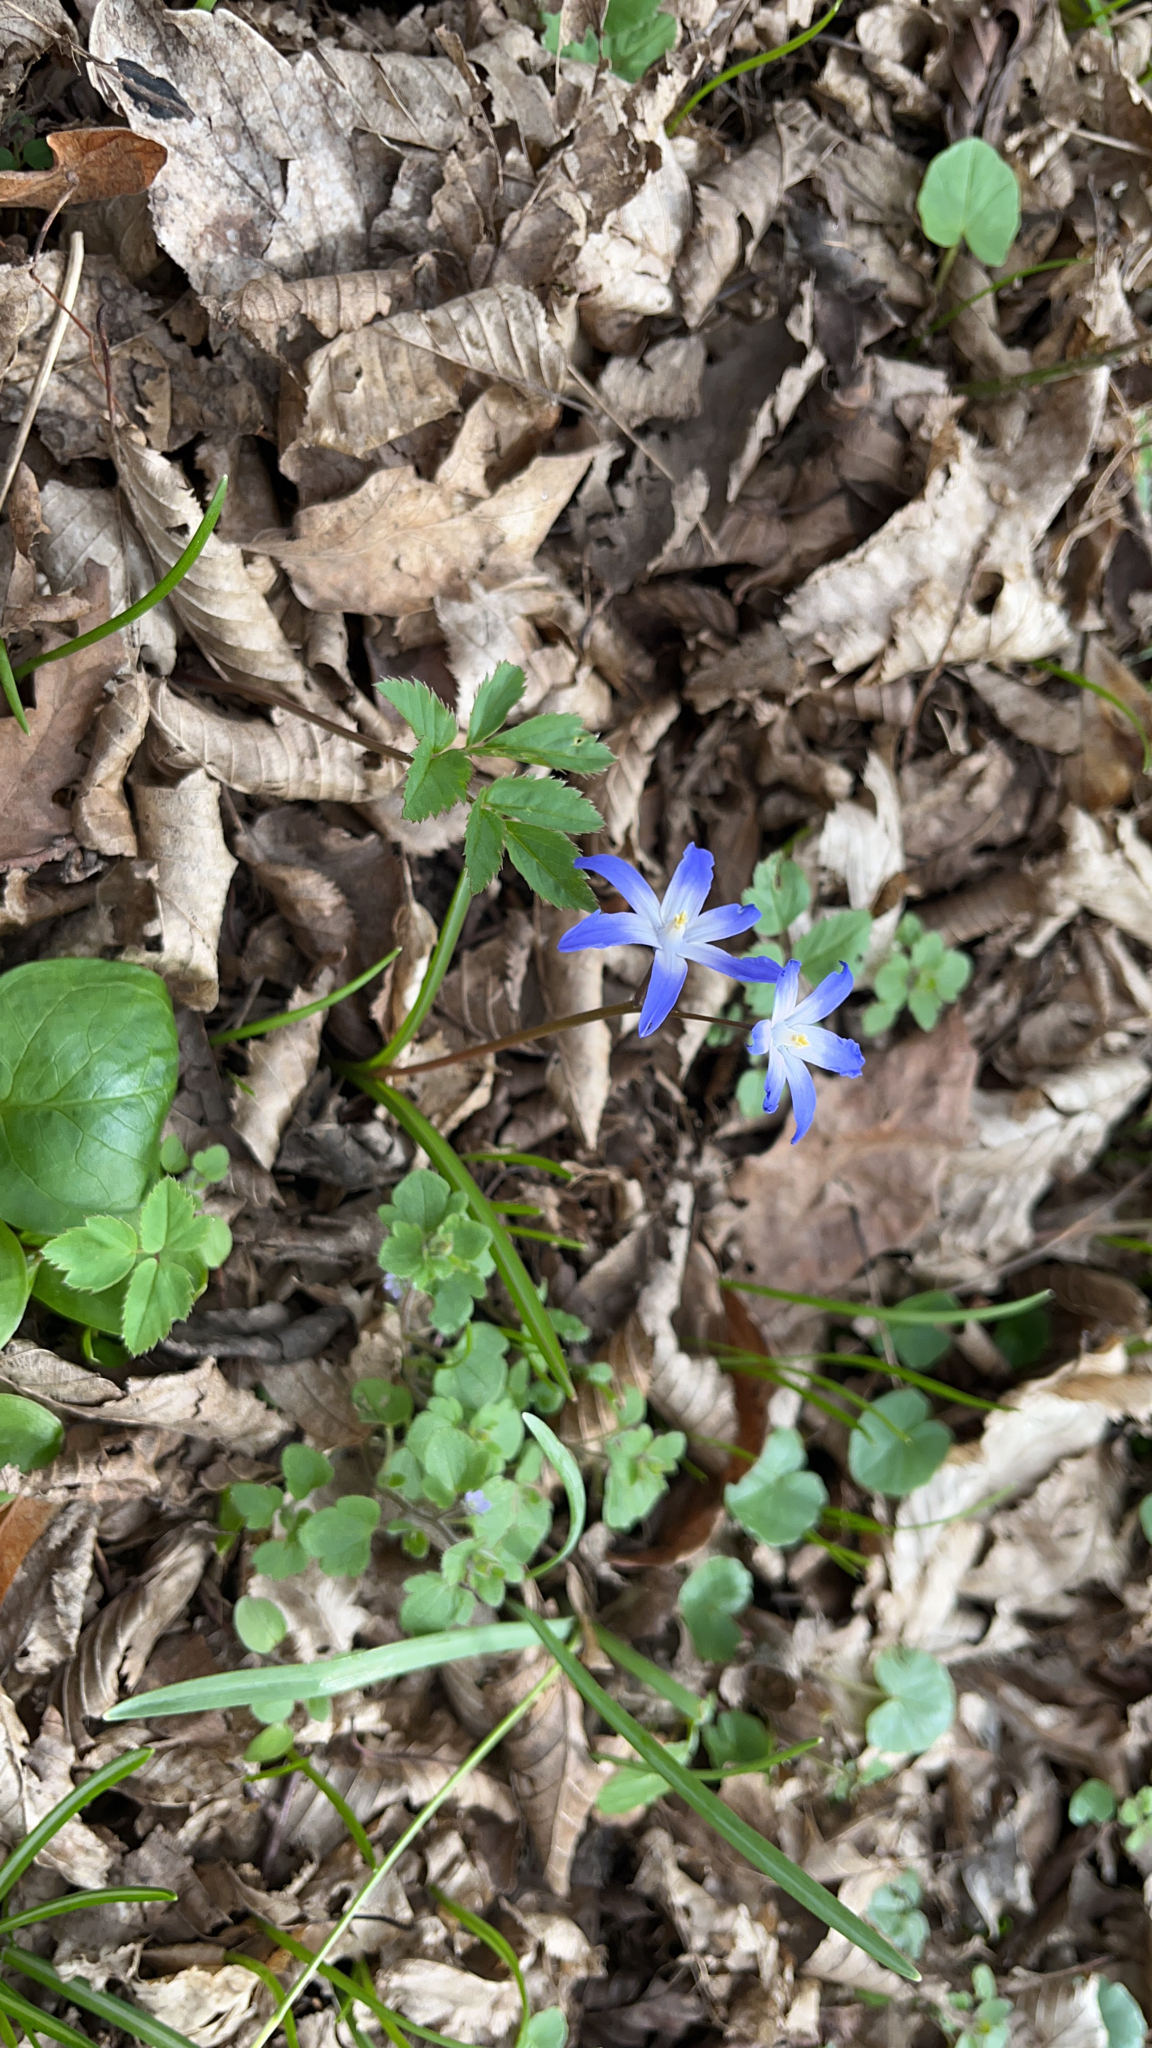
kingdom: Plantae
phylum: Tracheophyta
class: Liliopsida
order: Asparagales
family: Asparagaceae
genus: Scilla
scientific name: Scilla luciliae
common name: Boissier's glory-of-the-snow
